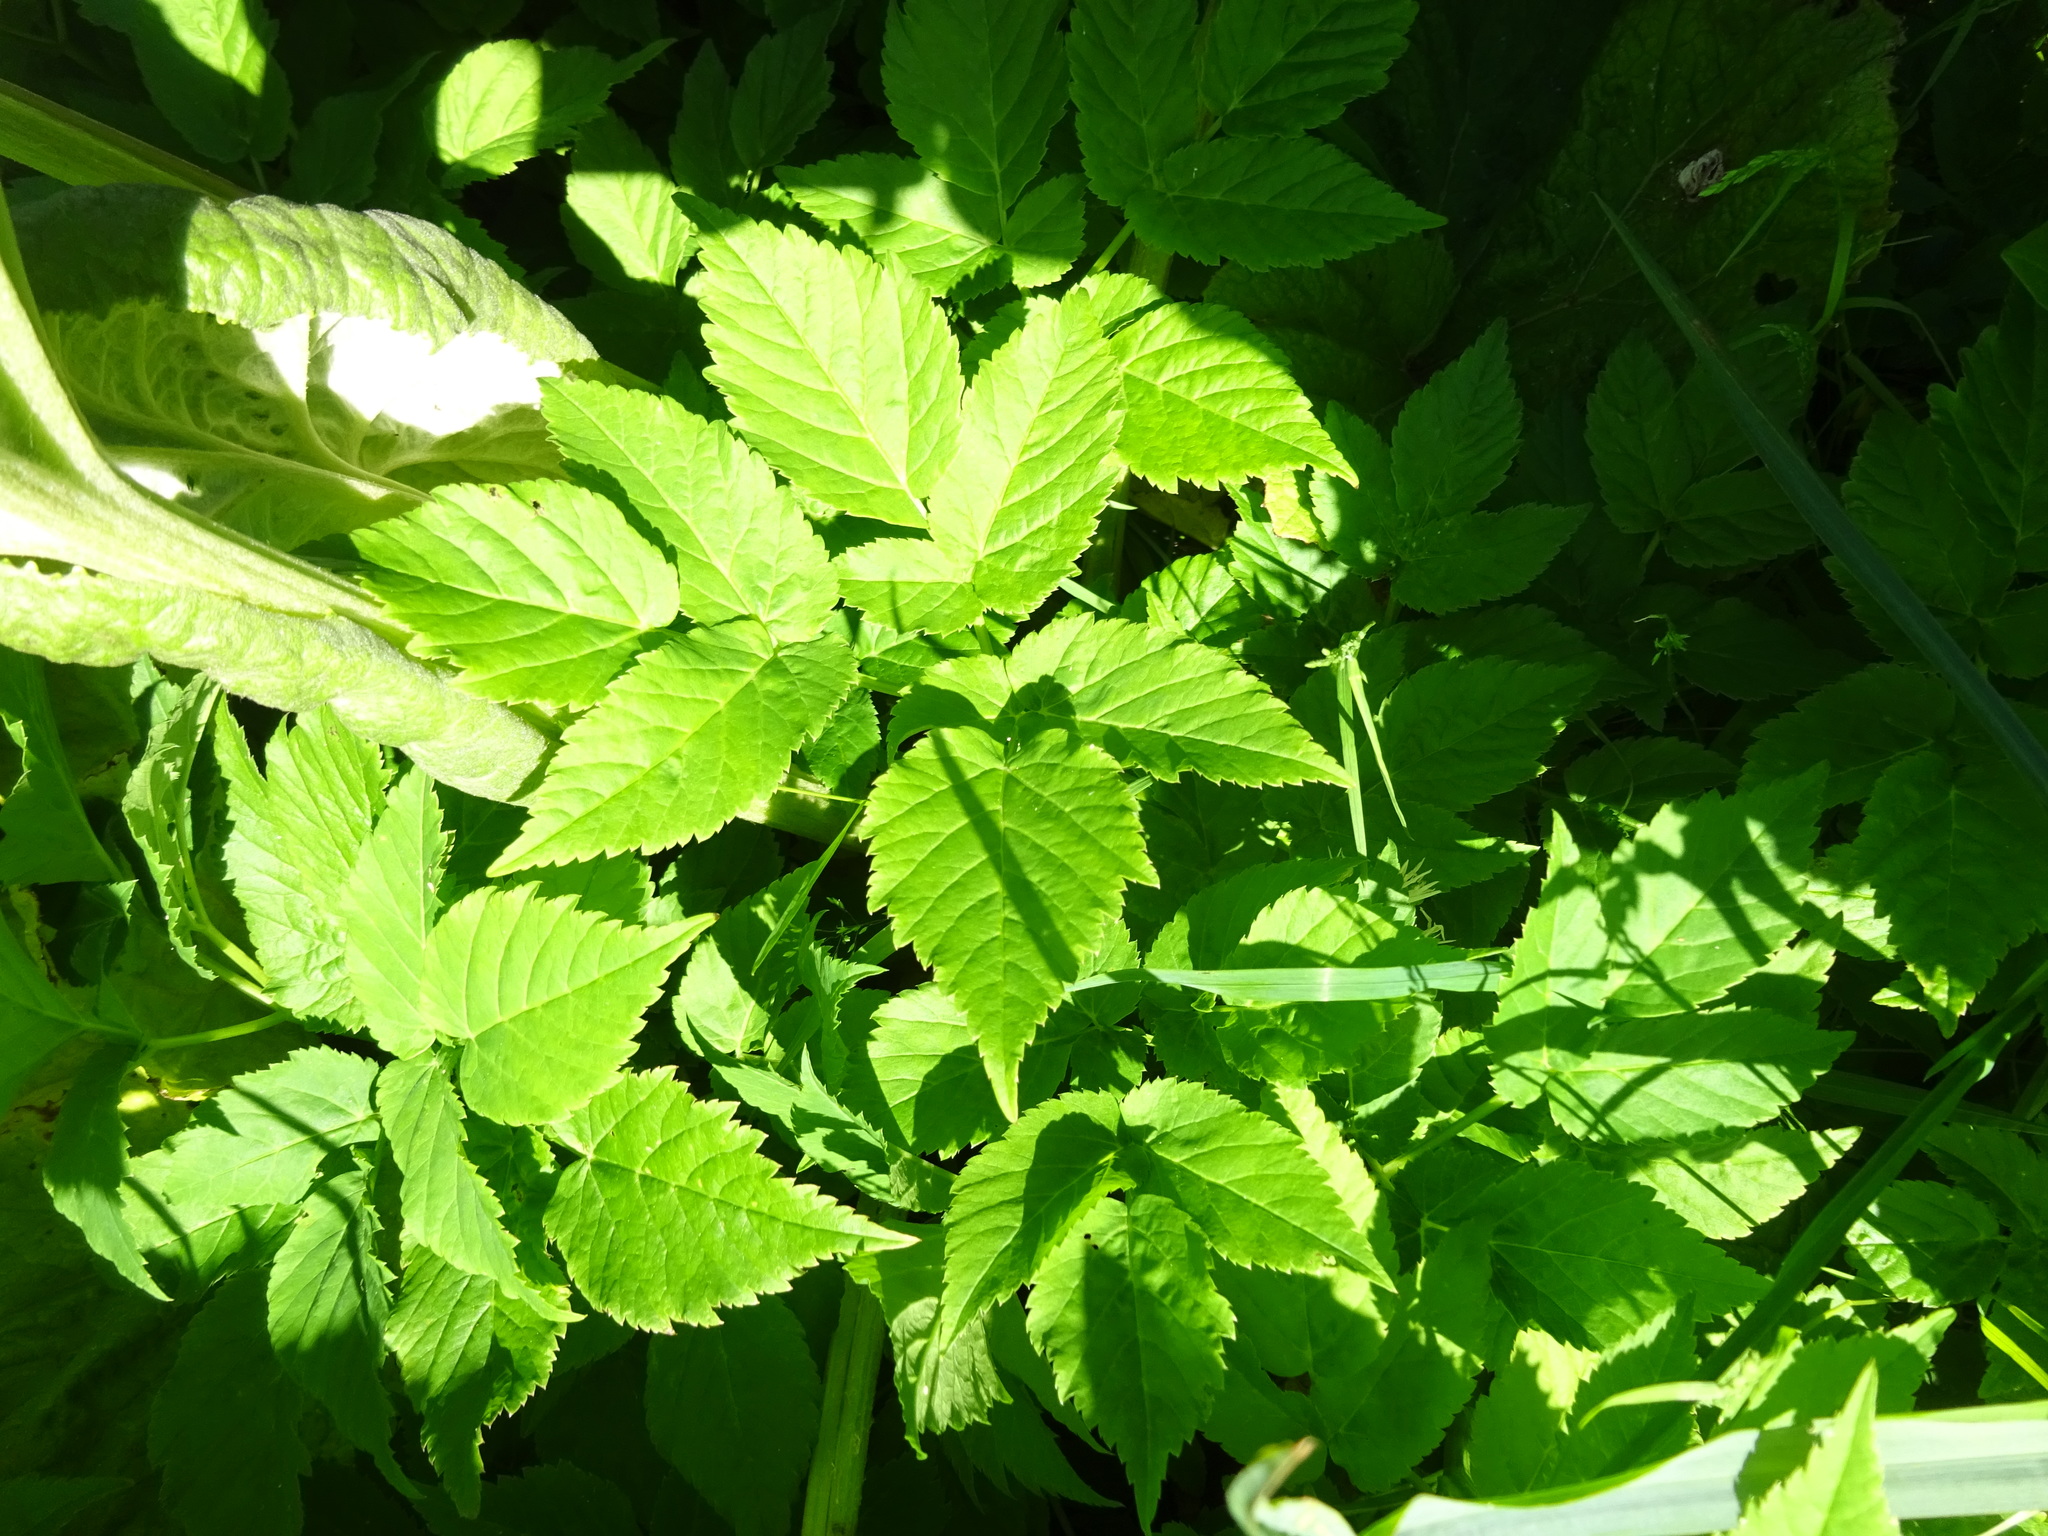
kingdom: Plantae
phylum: Tracheophyta
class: Magnoliopsida
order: Apiales
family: Apiaceae
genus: Aegopodium
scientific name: Aegopodium podagraria
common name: Ground-elder
